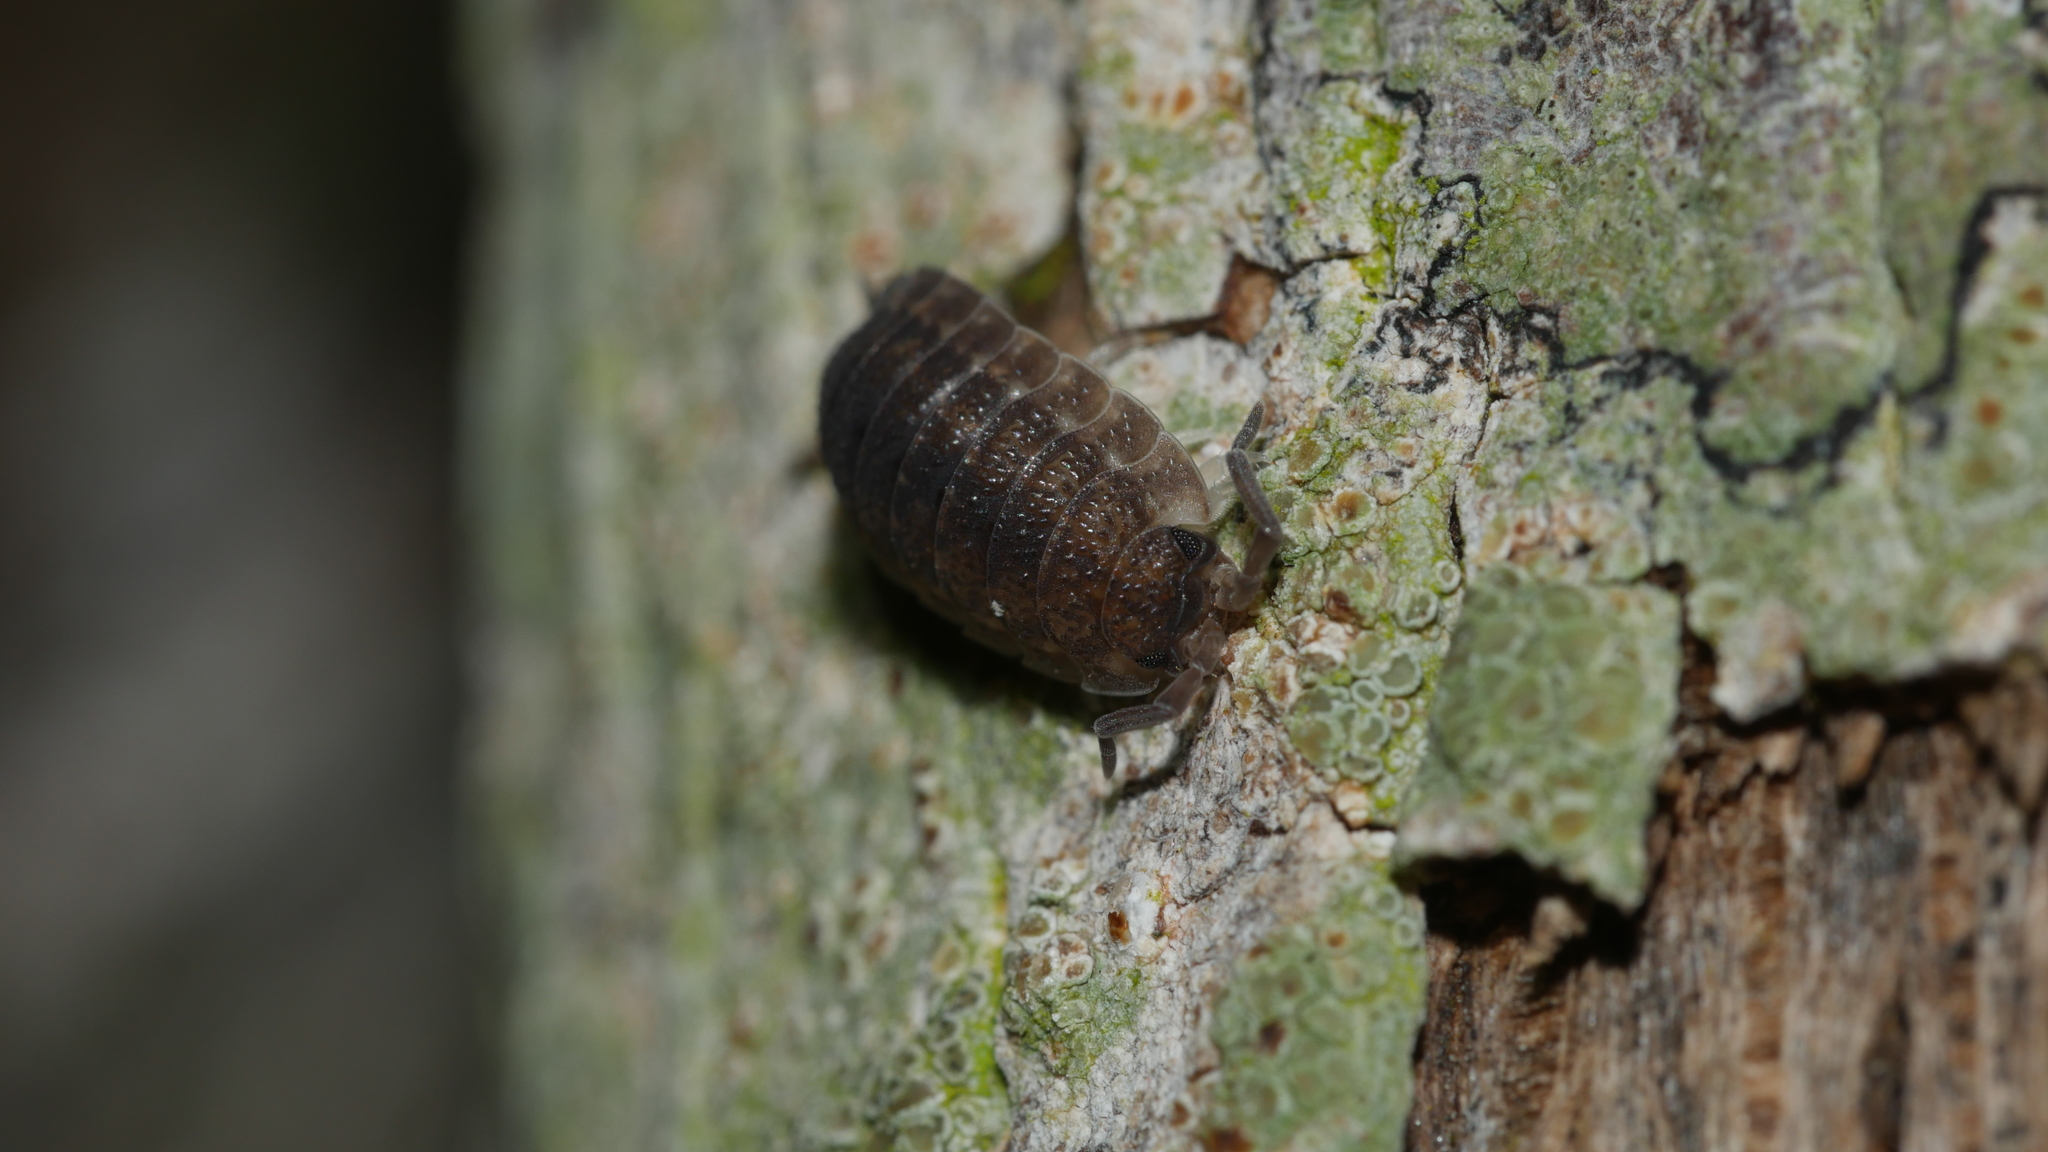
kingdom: Animalia
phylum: Arthropoda
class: Malacostraca
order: Isopoda
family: Porcellionidae
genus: Porcellio
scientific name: Porcellio scaber
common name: Common rough woodlouse
